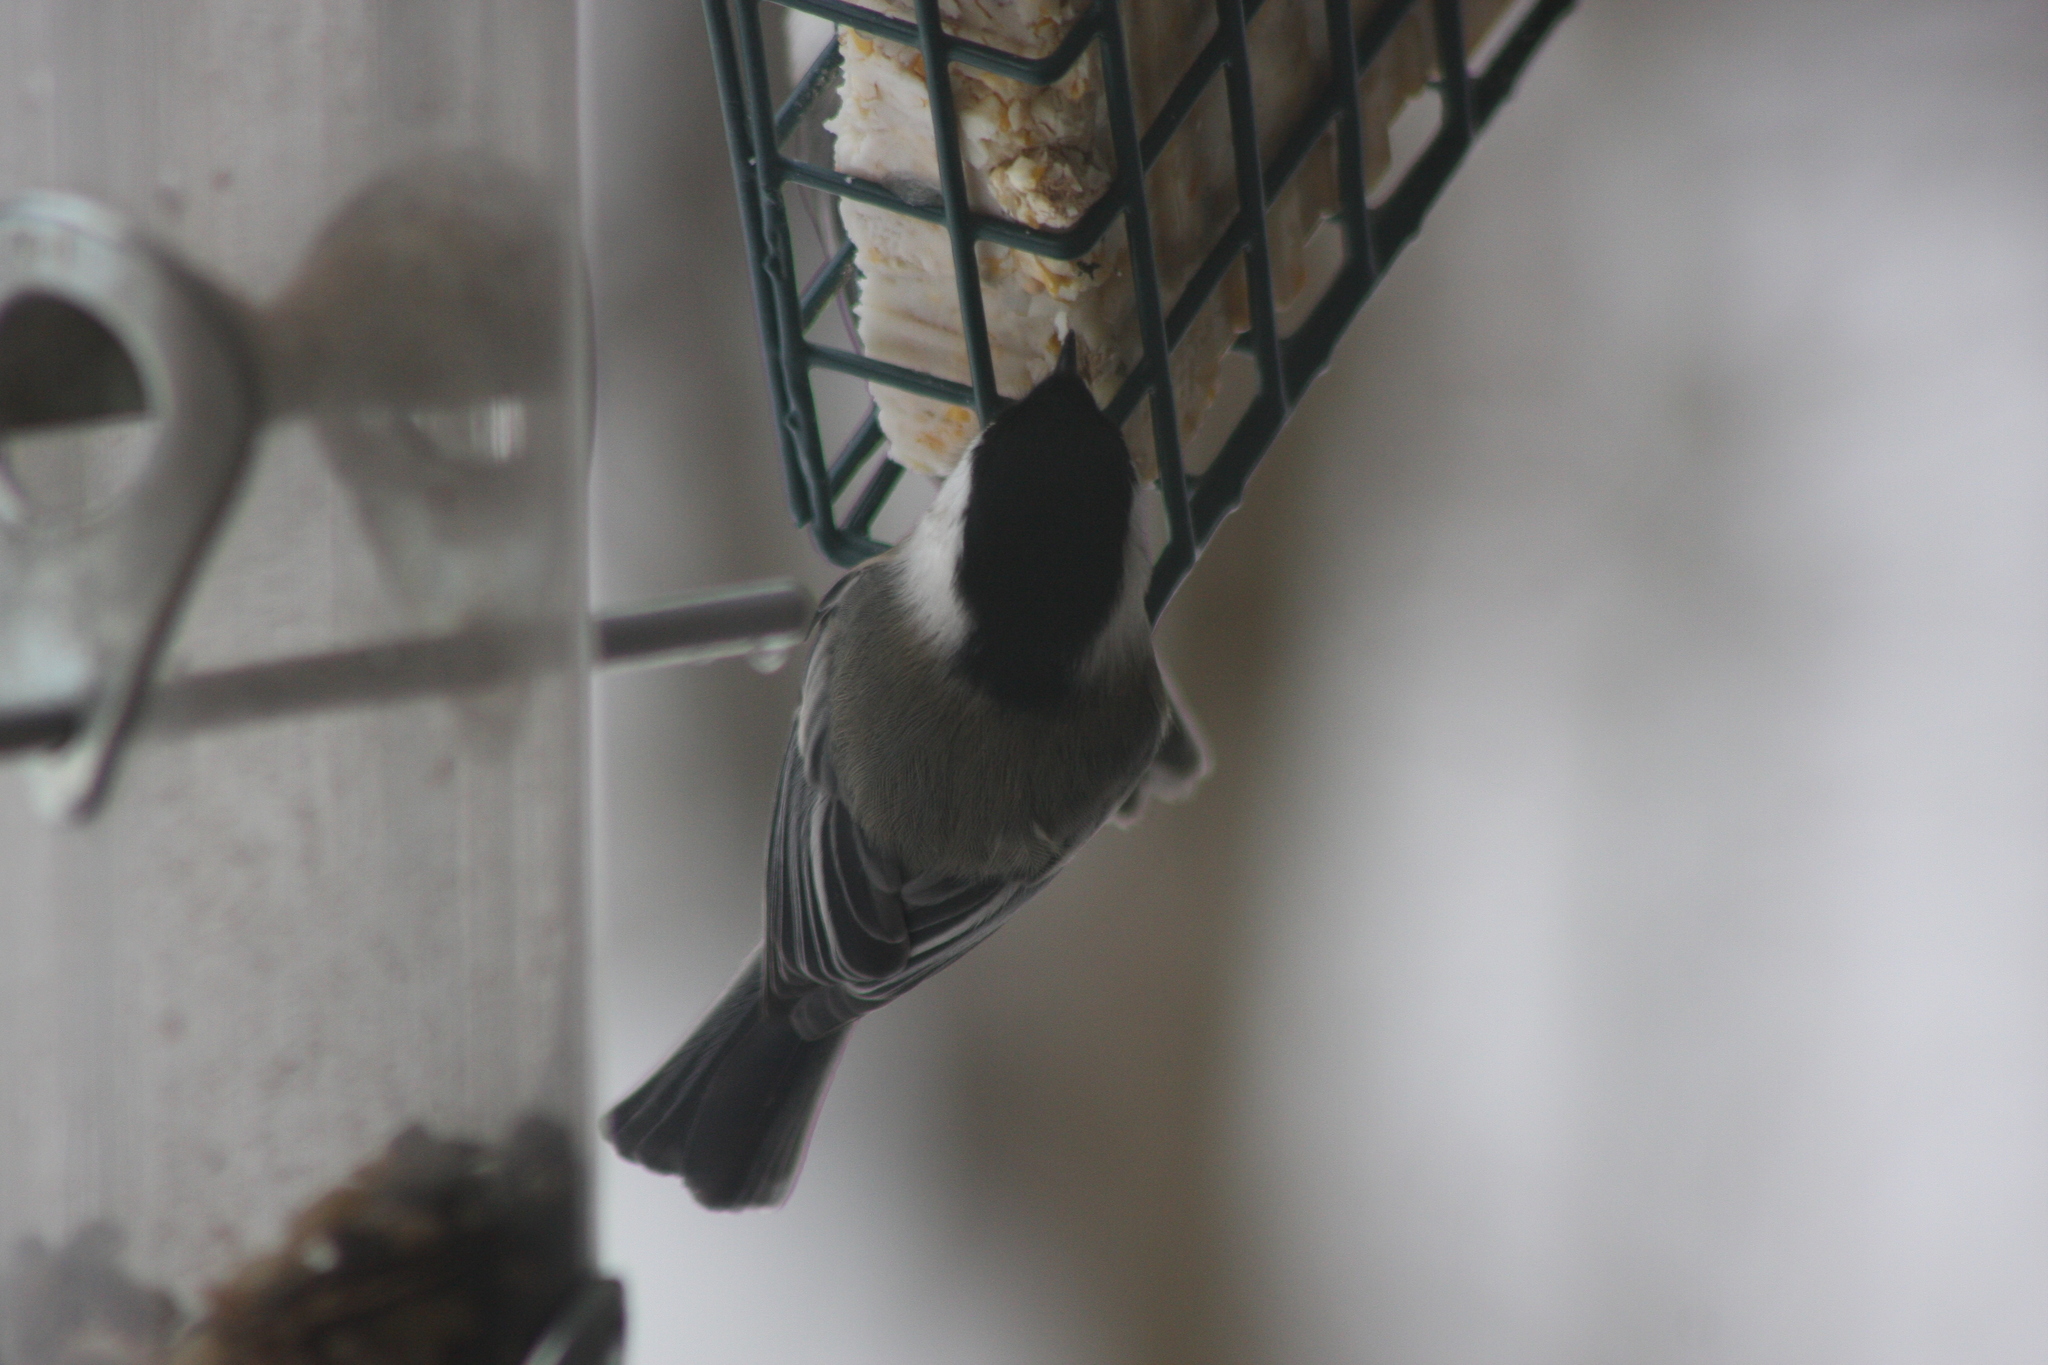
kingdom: Animalia
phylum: Chordata
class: Aves
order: Passeriformes
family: Paridae
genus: Poecile
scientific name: Poecile atricapillus
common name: Black-capped chickadee
